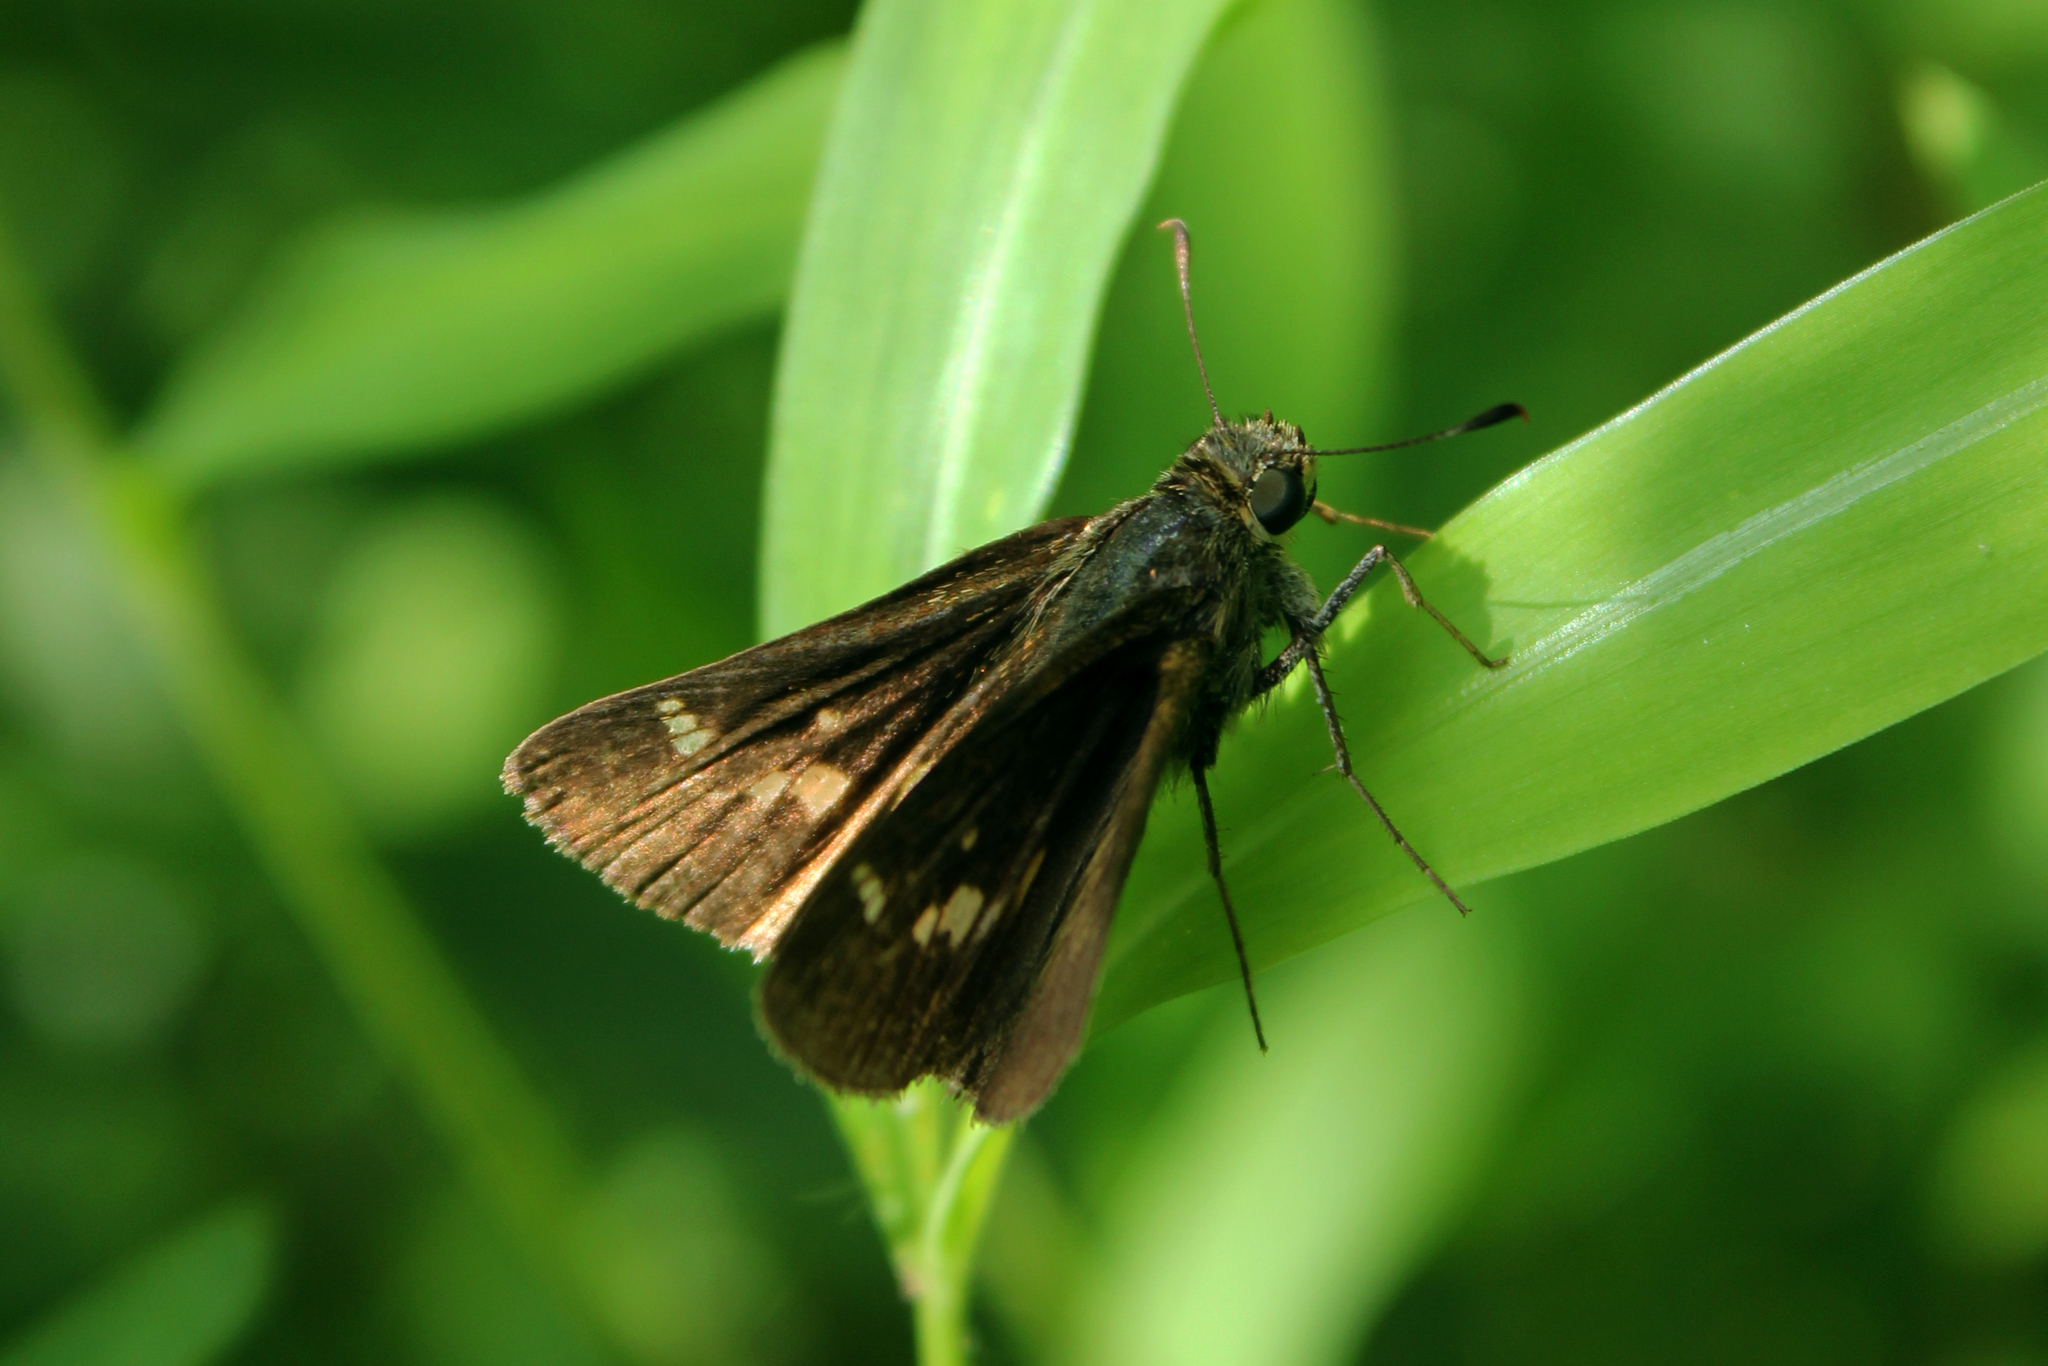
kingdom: Animalia
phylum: Arthropoda
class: Insecta
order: Lepidoptera
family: Hesperiidae
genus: Vernia
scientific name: Vernia verna
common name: Little glassywing
